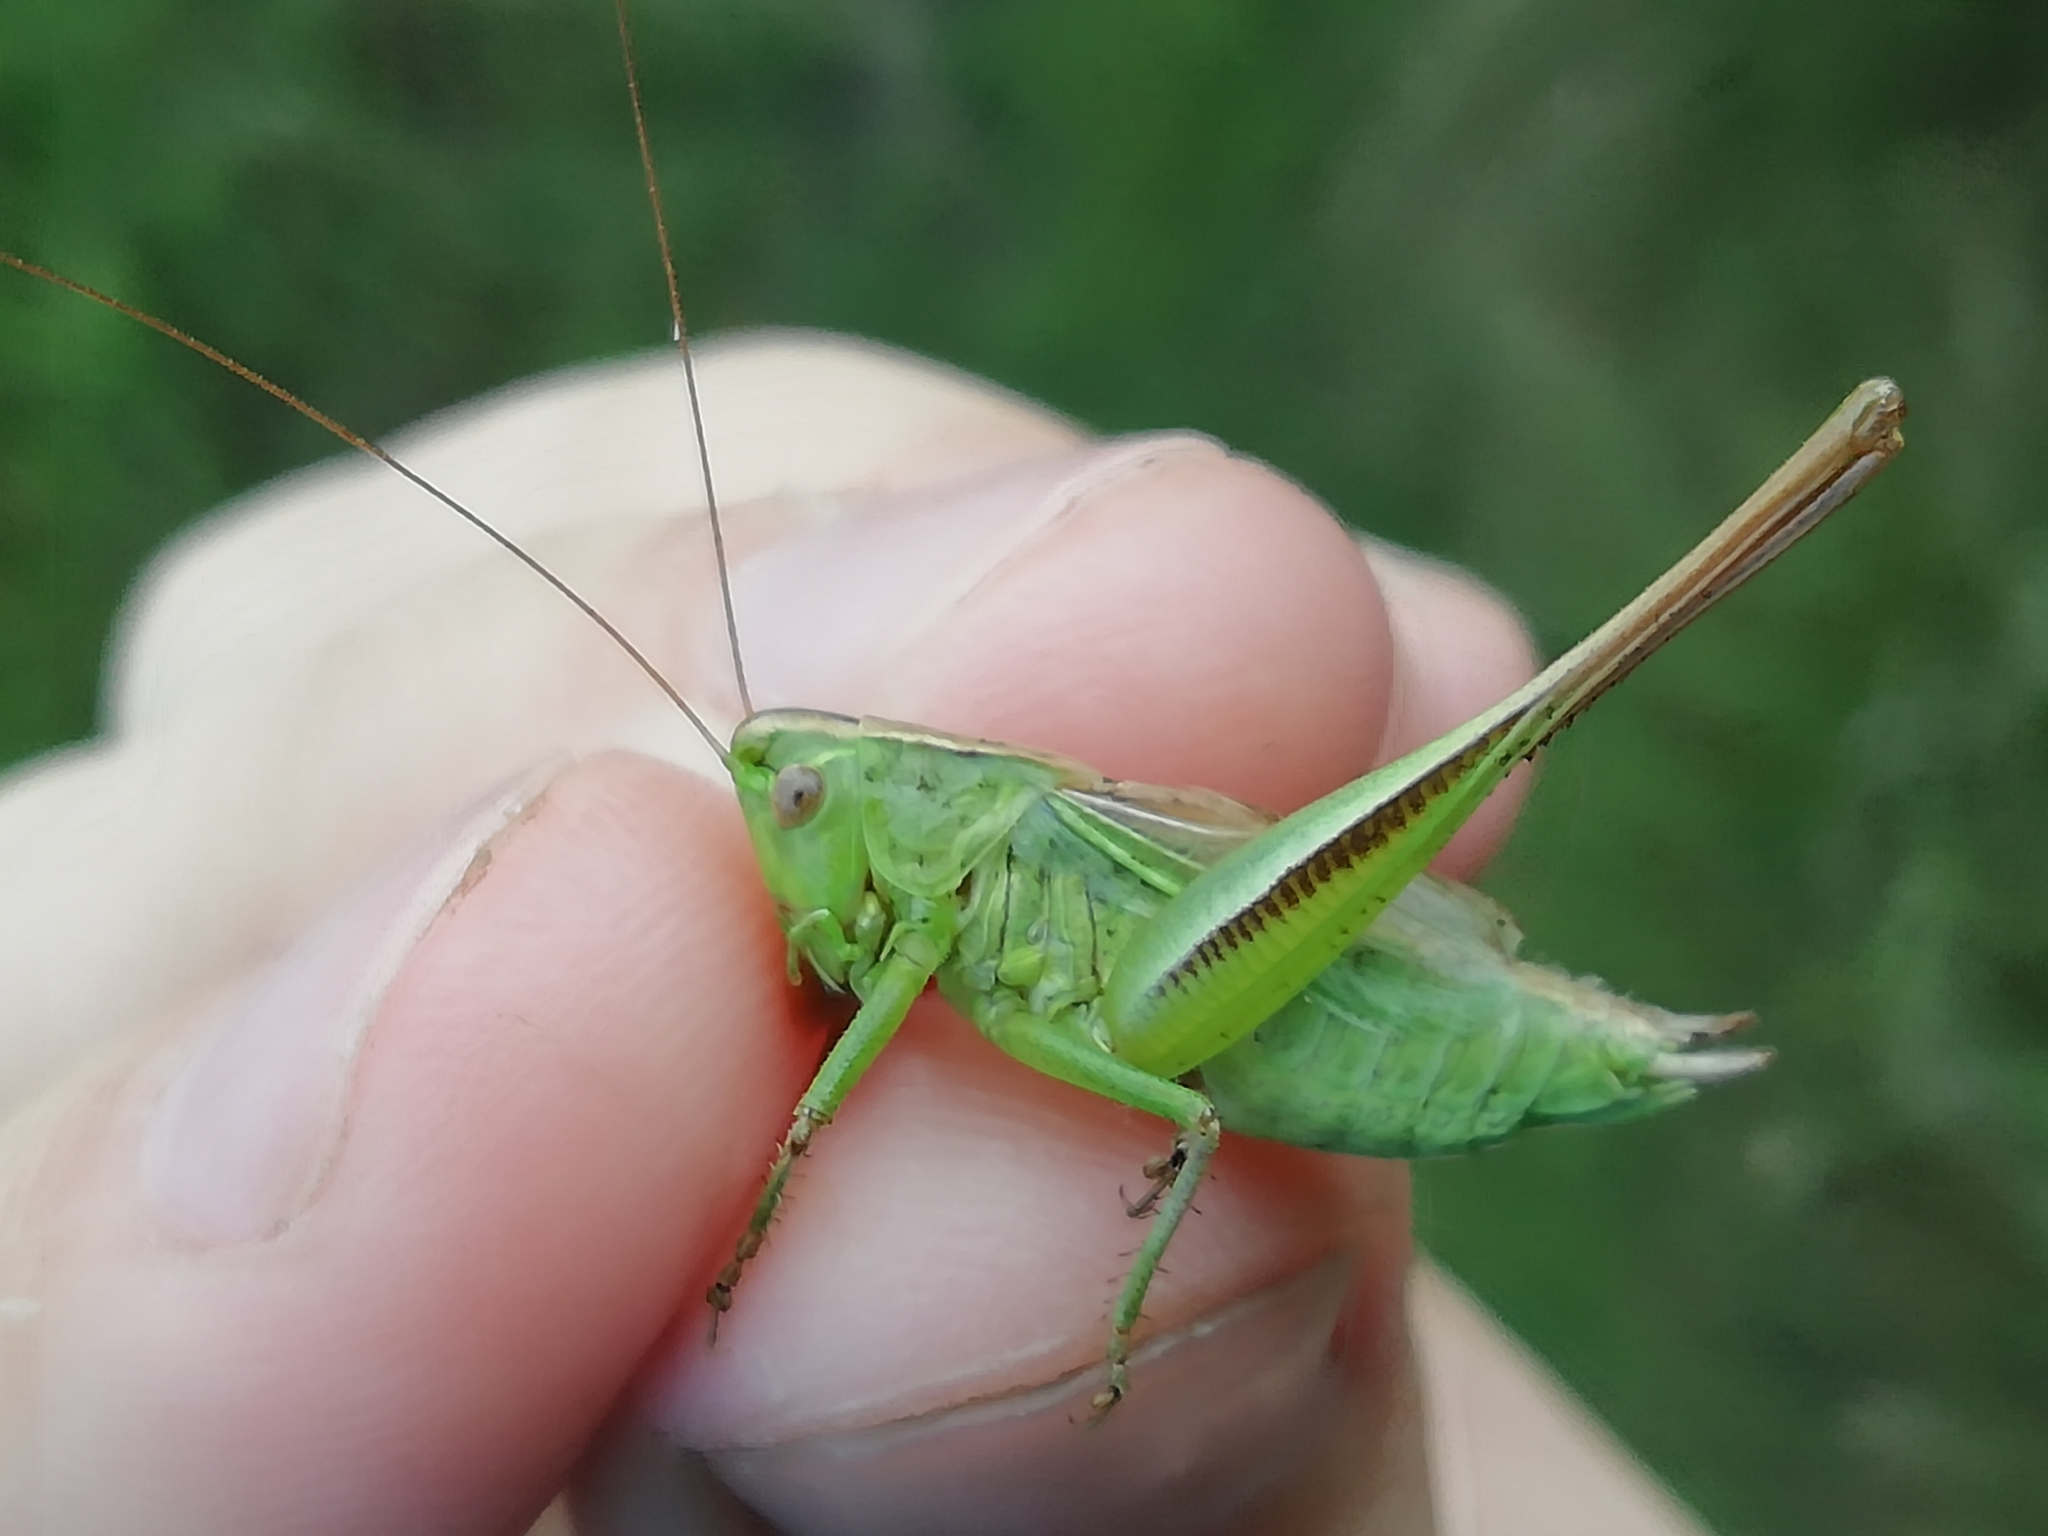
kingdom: Animalia
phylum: Arthropoda
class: Insecta
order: Orthoptera
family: Tettigoniidae
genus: Bicolorana
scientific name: Bicolorana bicolor
